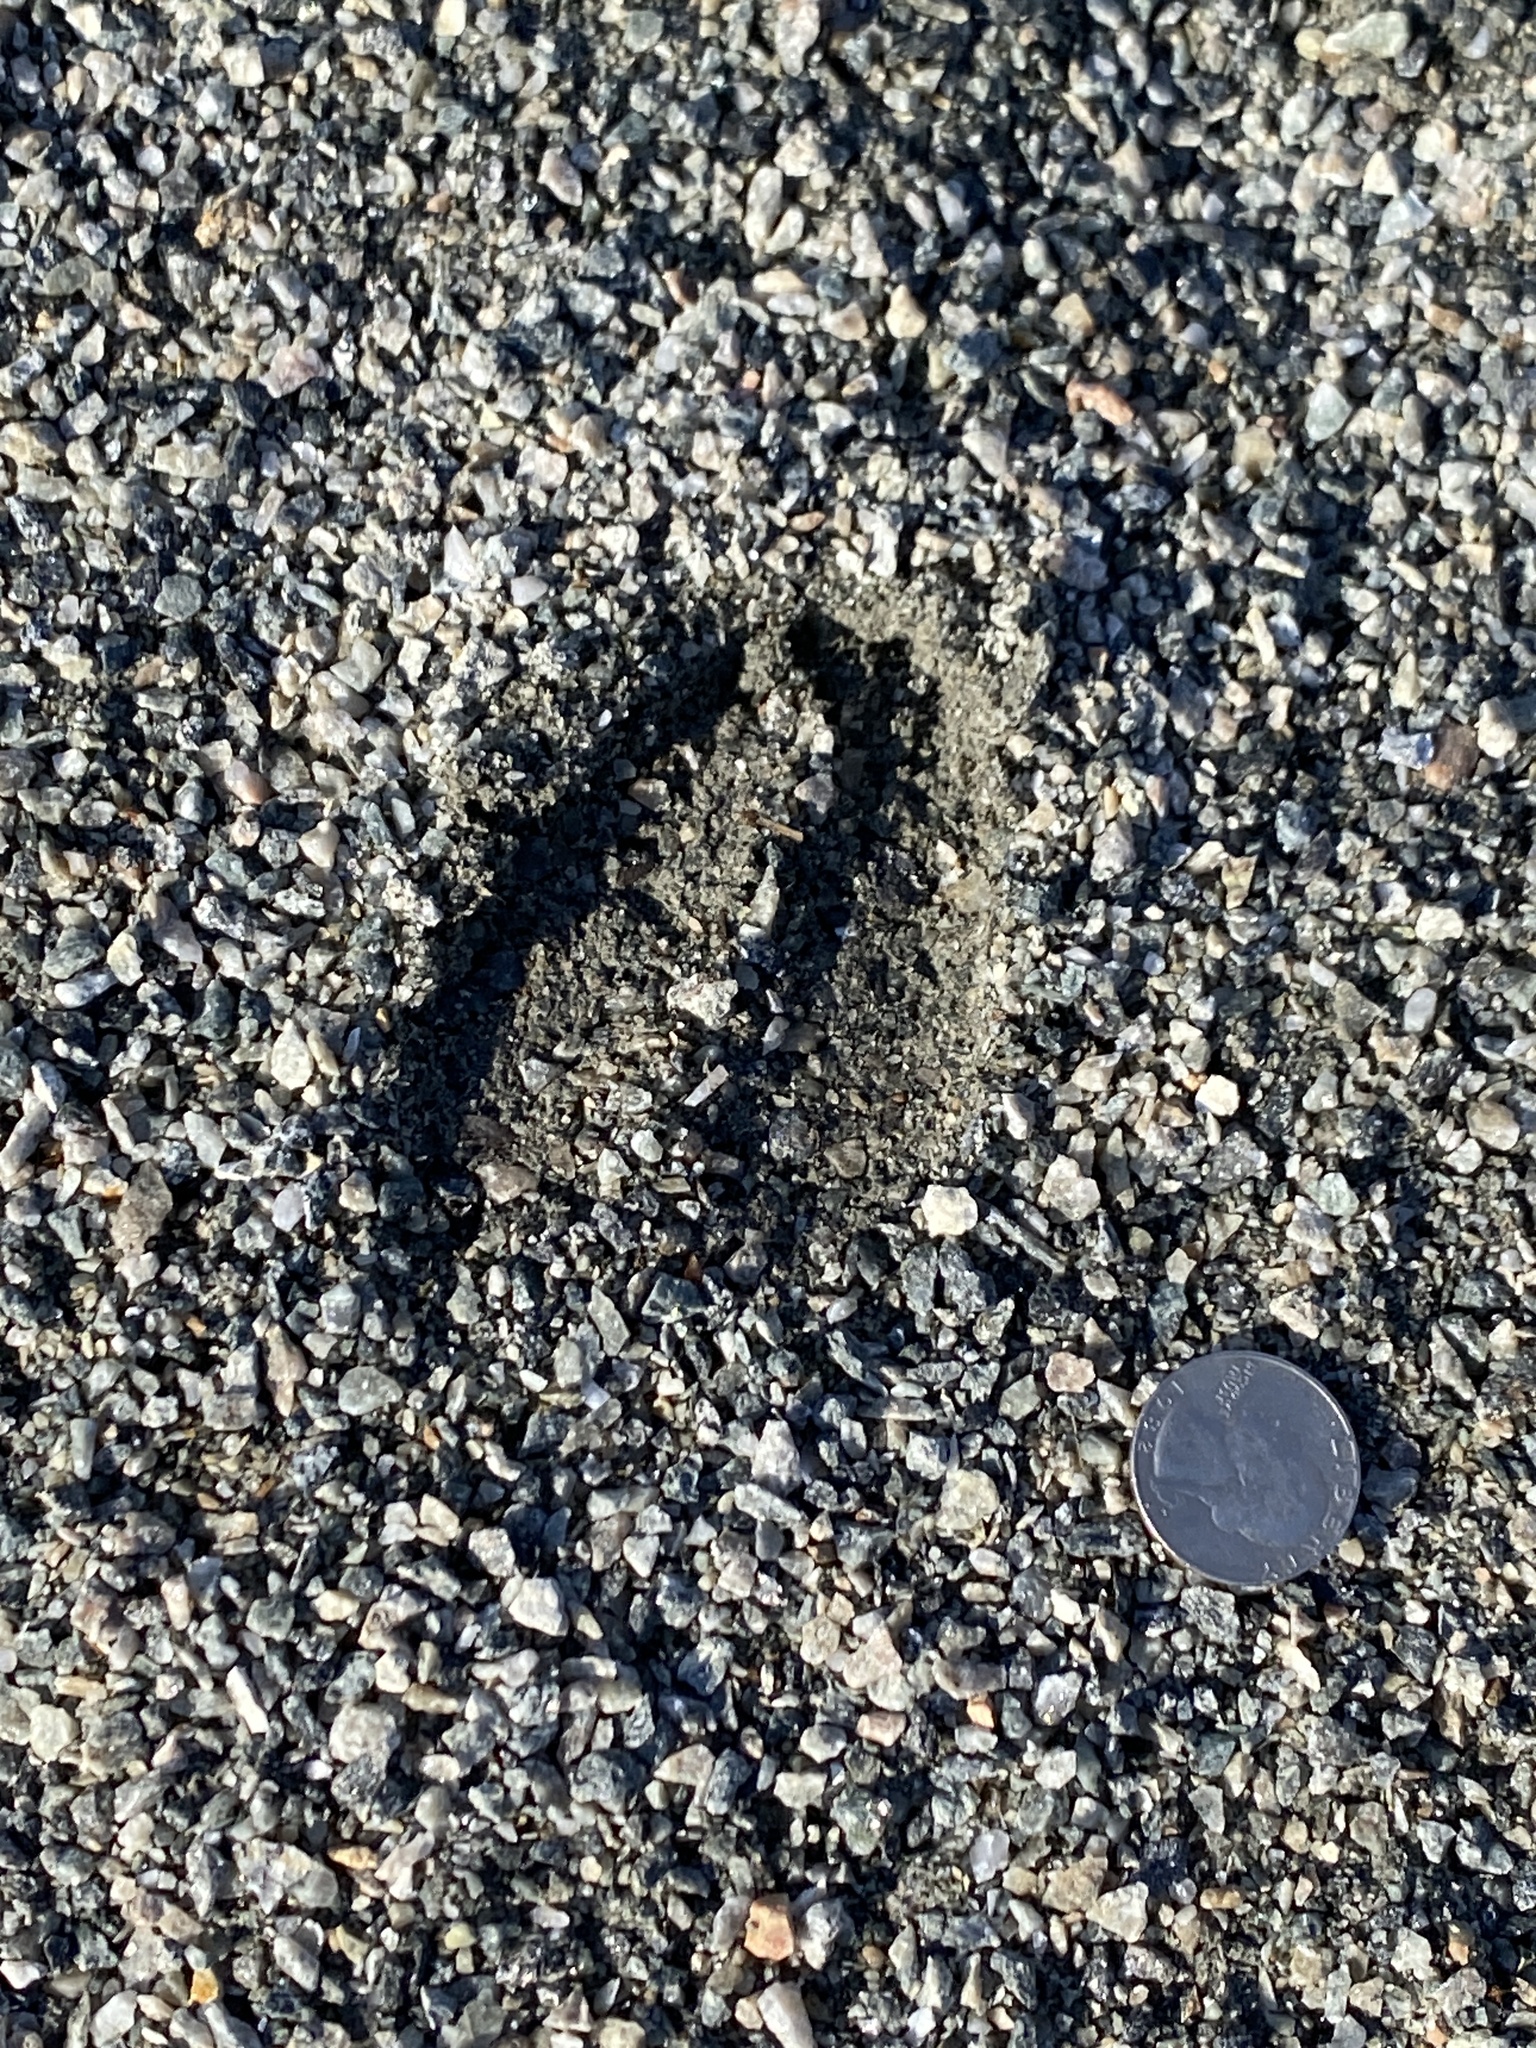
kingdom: Animalia
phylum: Chordata
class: Mammalia
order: Artiodactyla
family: Cervidae
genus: Odocoileus
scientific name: Odocoileus virginianus
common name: White-tailed deer
